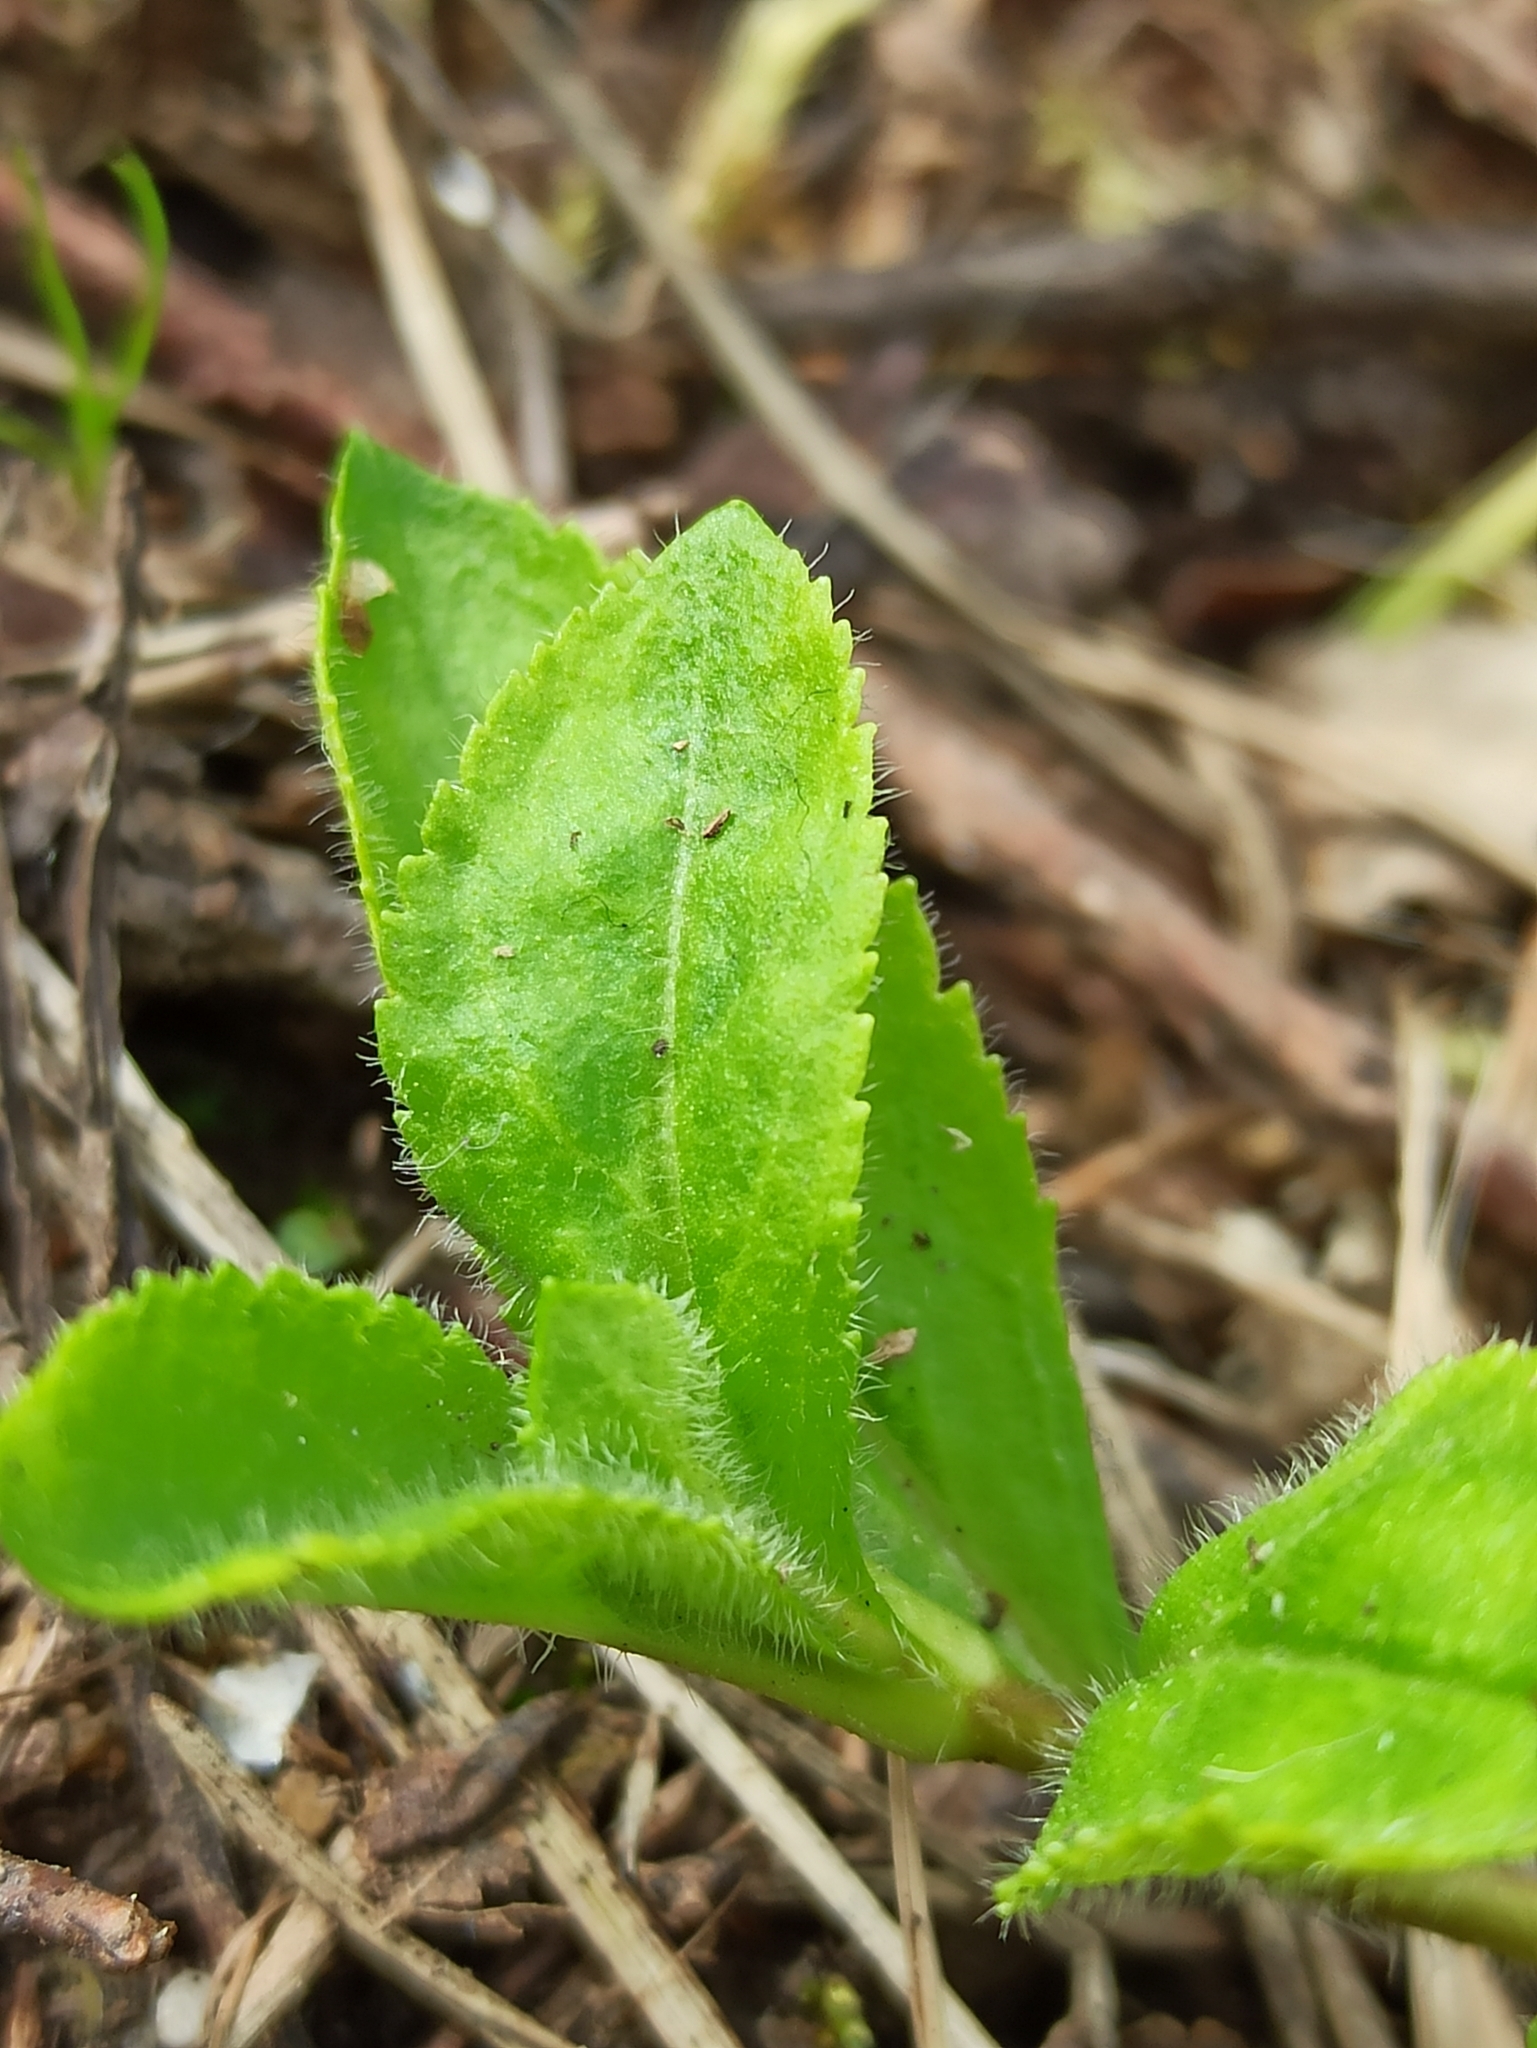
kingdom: Plantae
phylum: Tracheophyta
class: Magnoliopsida
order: Lamiales
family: Plantaginaceae
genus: Veronica
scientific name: Veronica officinalis
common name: Common speedwell
